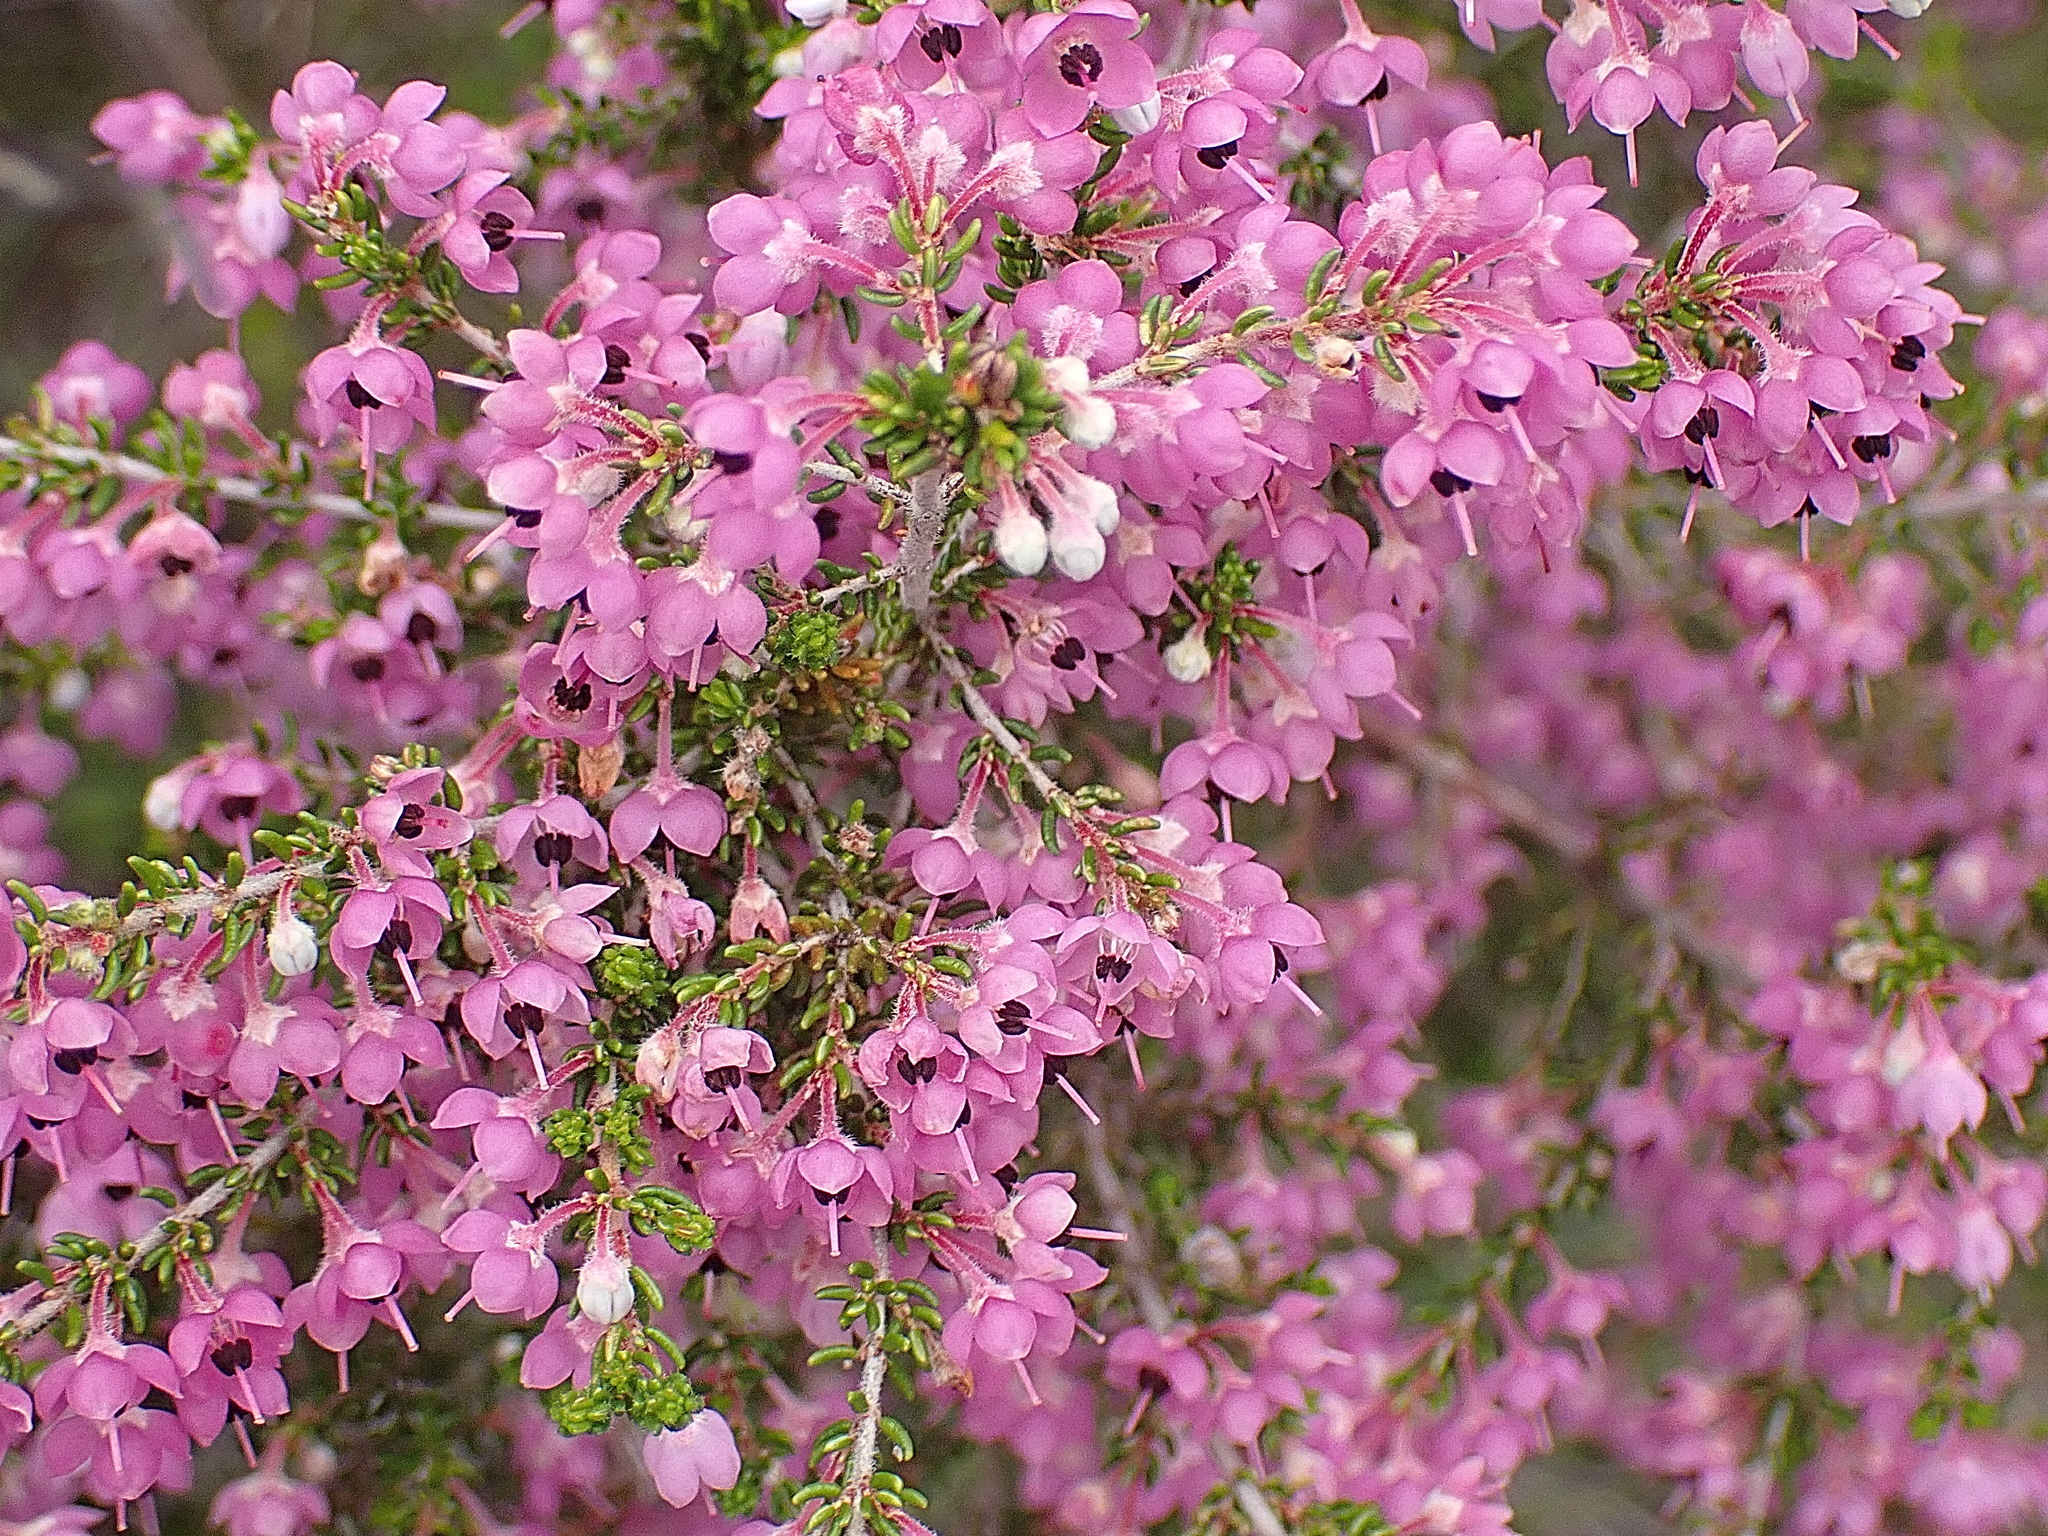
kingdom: Plantae
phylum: Tracheophyta
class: Magnoliopsida
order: Ericales
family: Ericaceae
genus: Erica
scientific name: Erica melanthera
